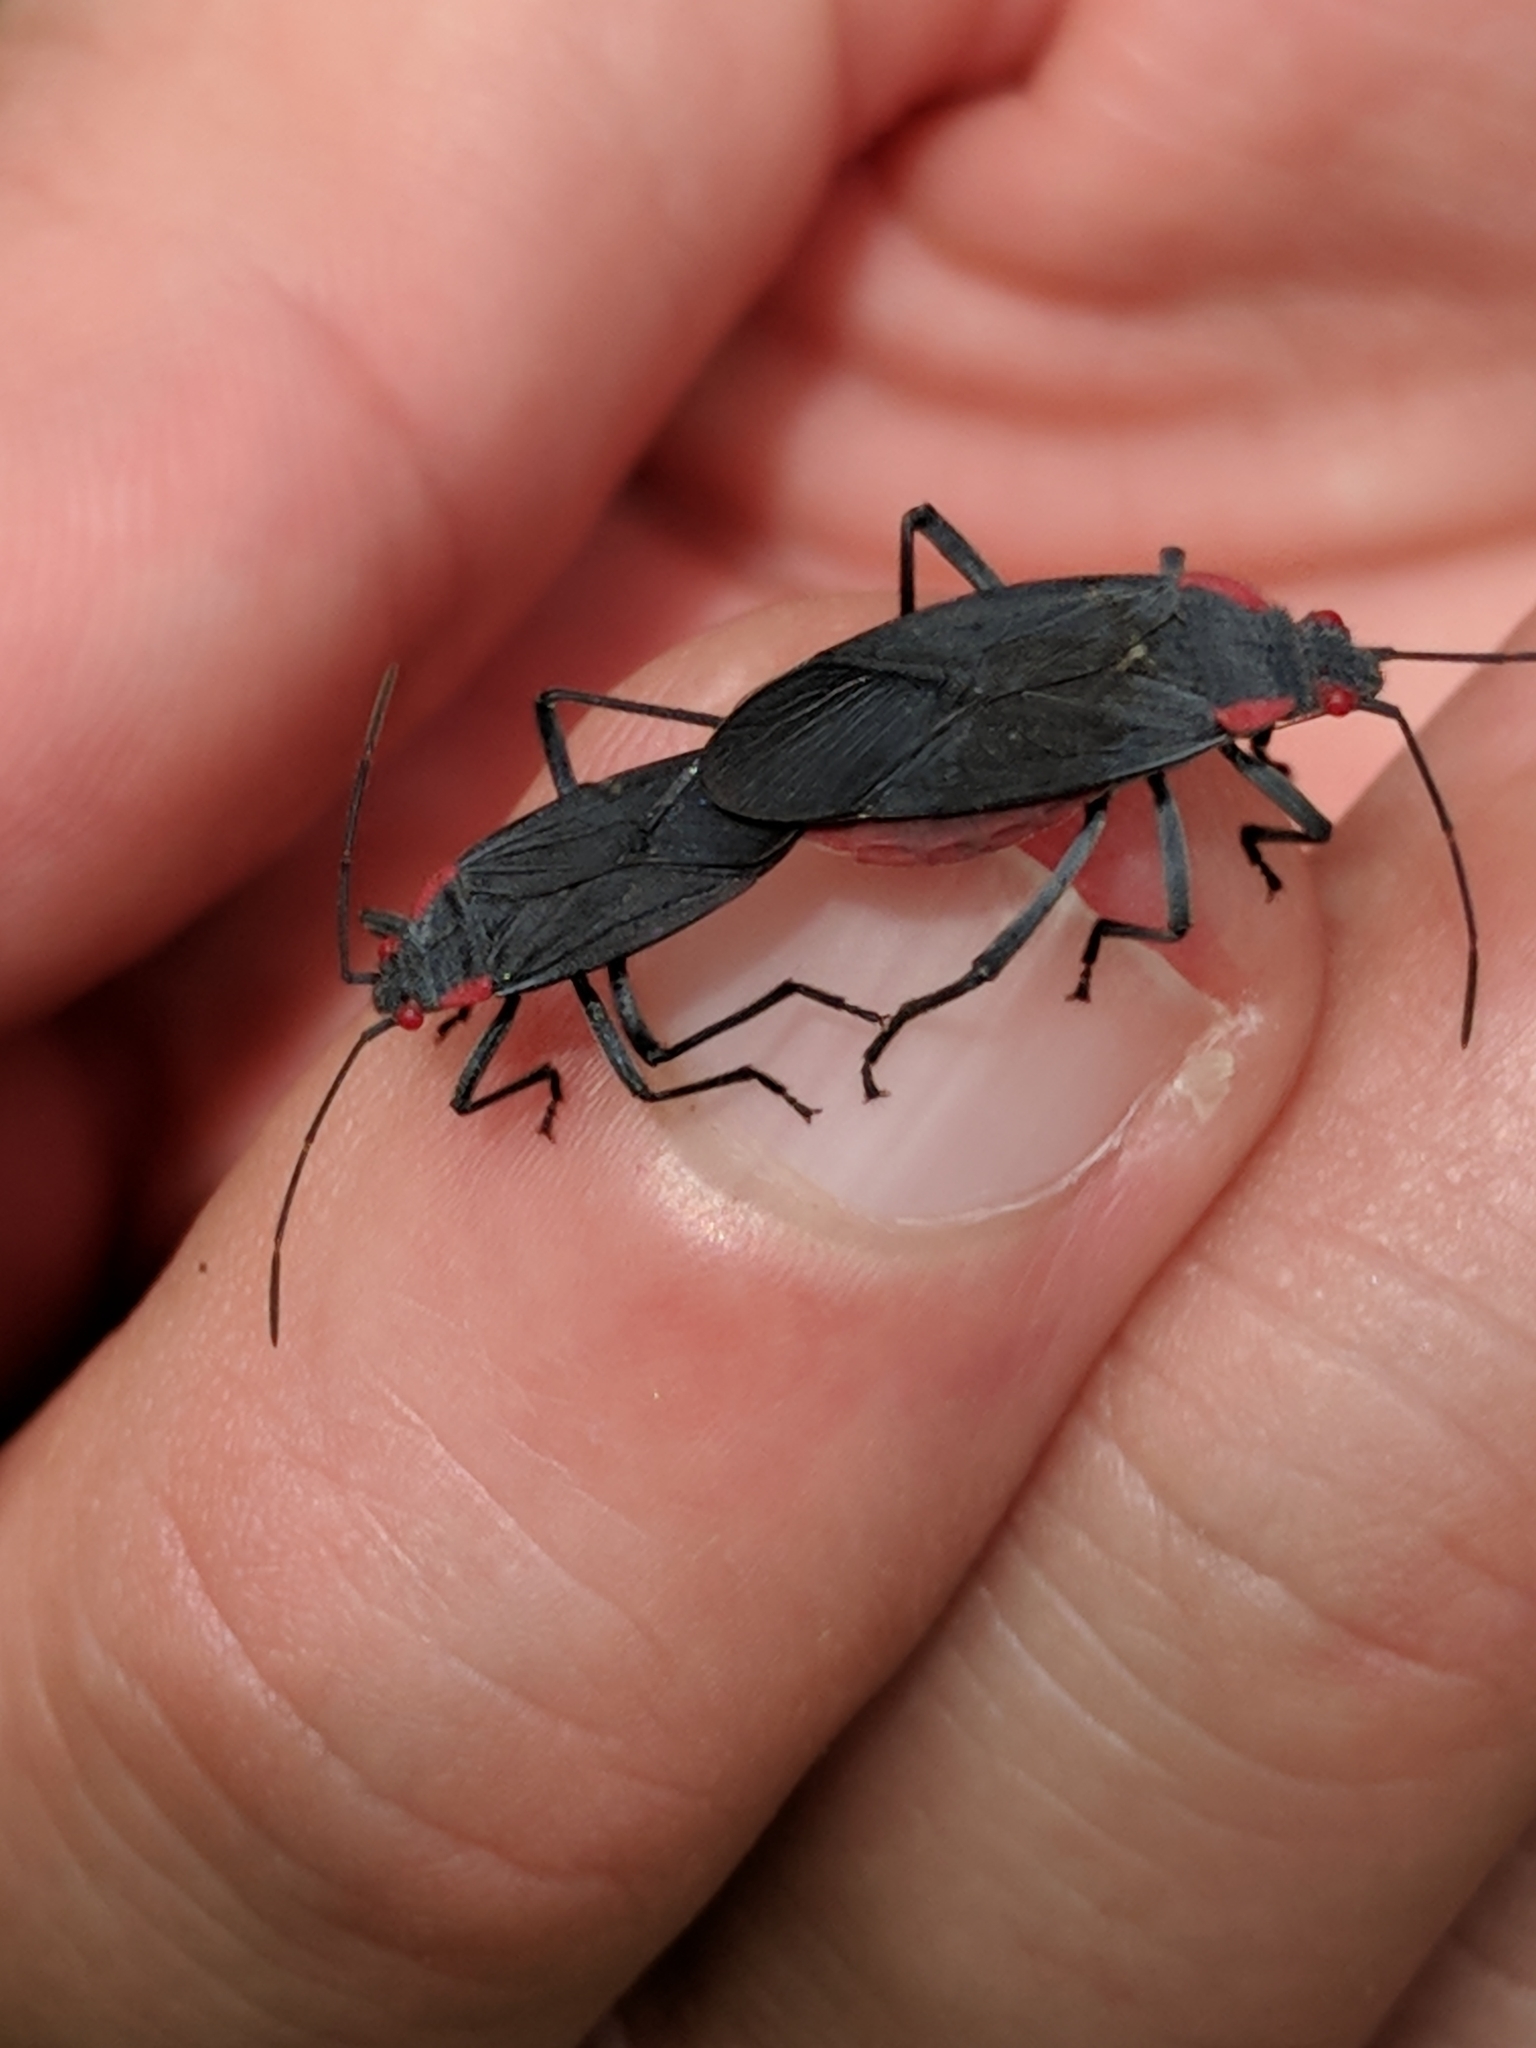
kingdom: Animalia
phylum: Arthropoda
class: Insecta
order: Hemiptera
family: Rhopalidae
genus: Jadera
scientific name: Jadera haematoloma
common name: Red-shouldered bug
